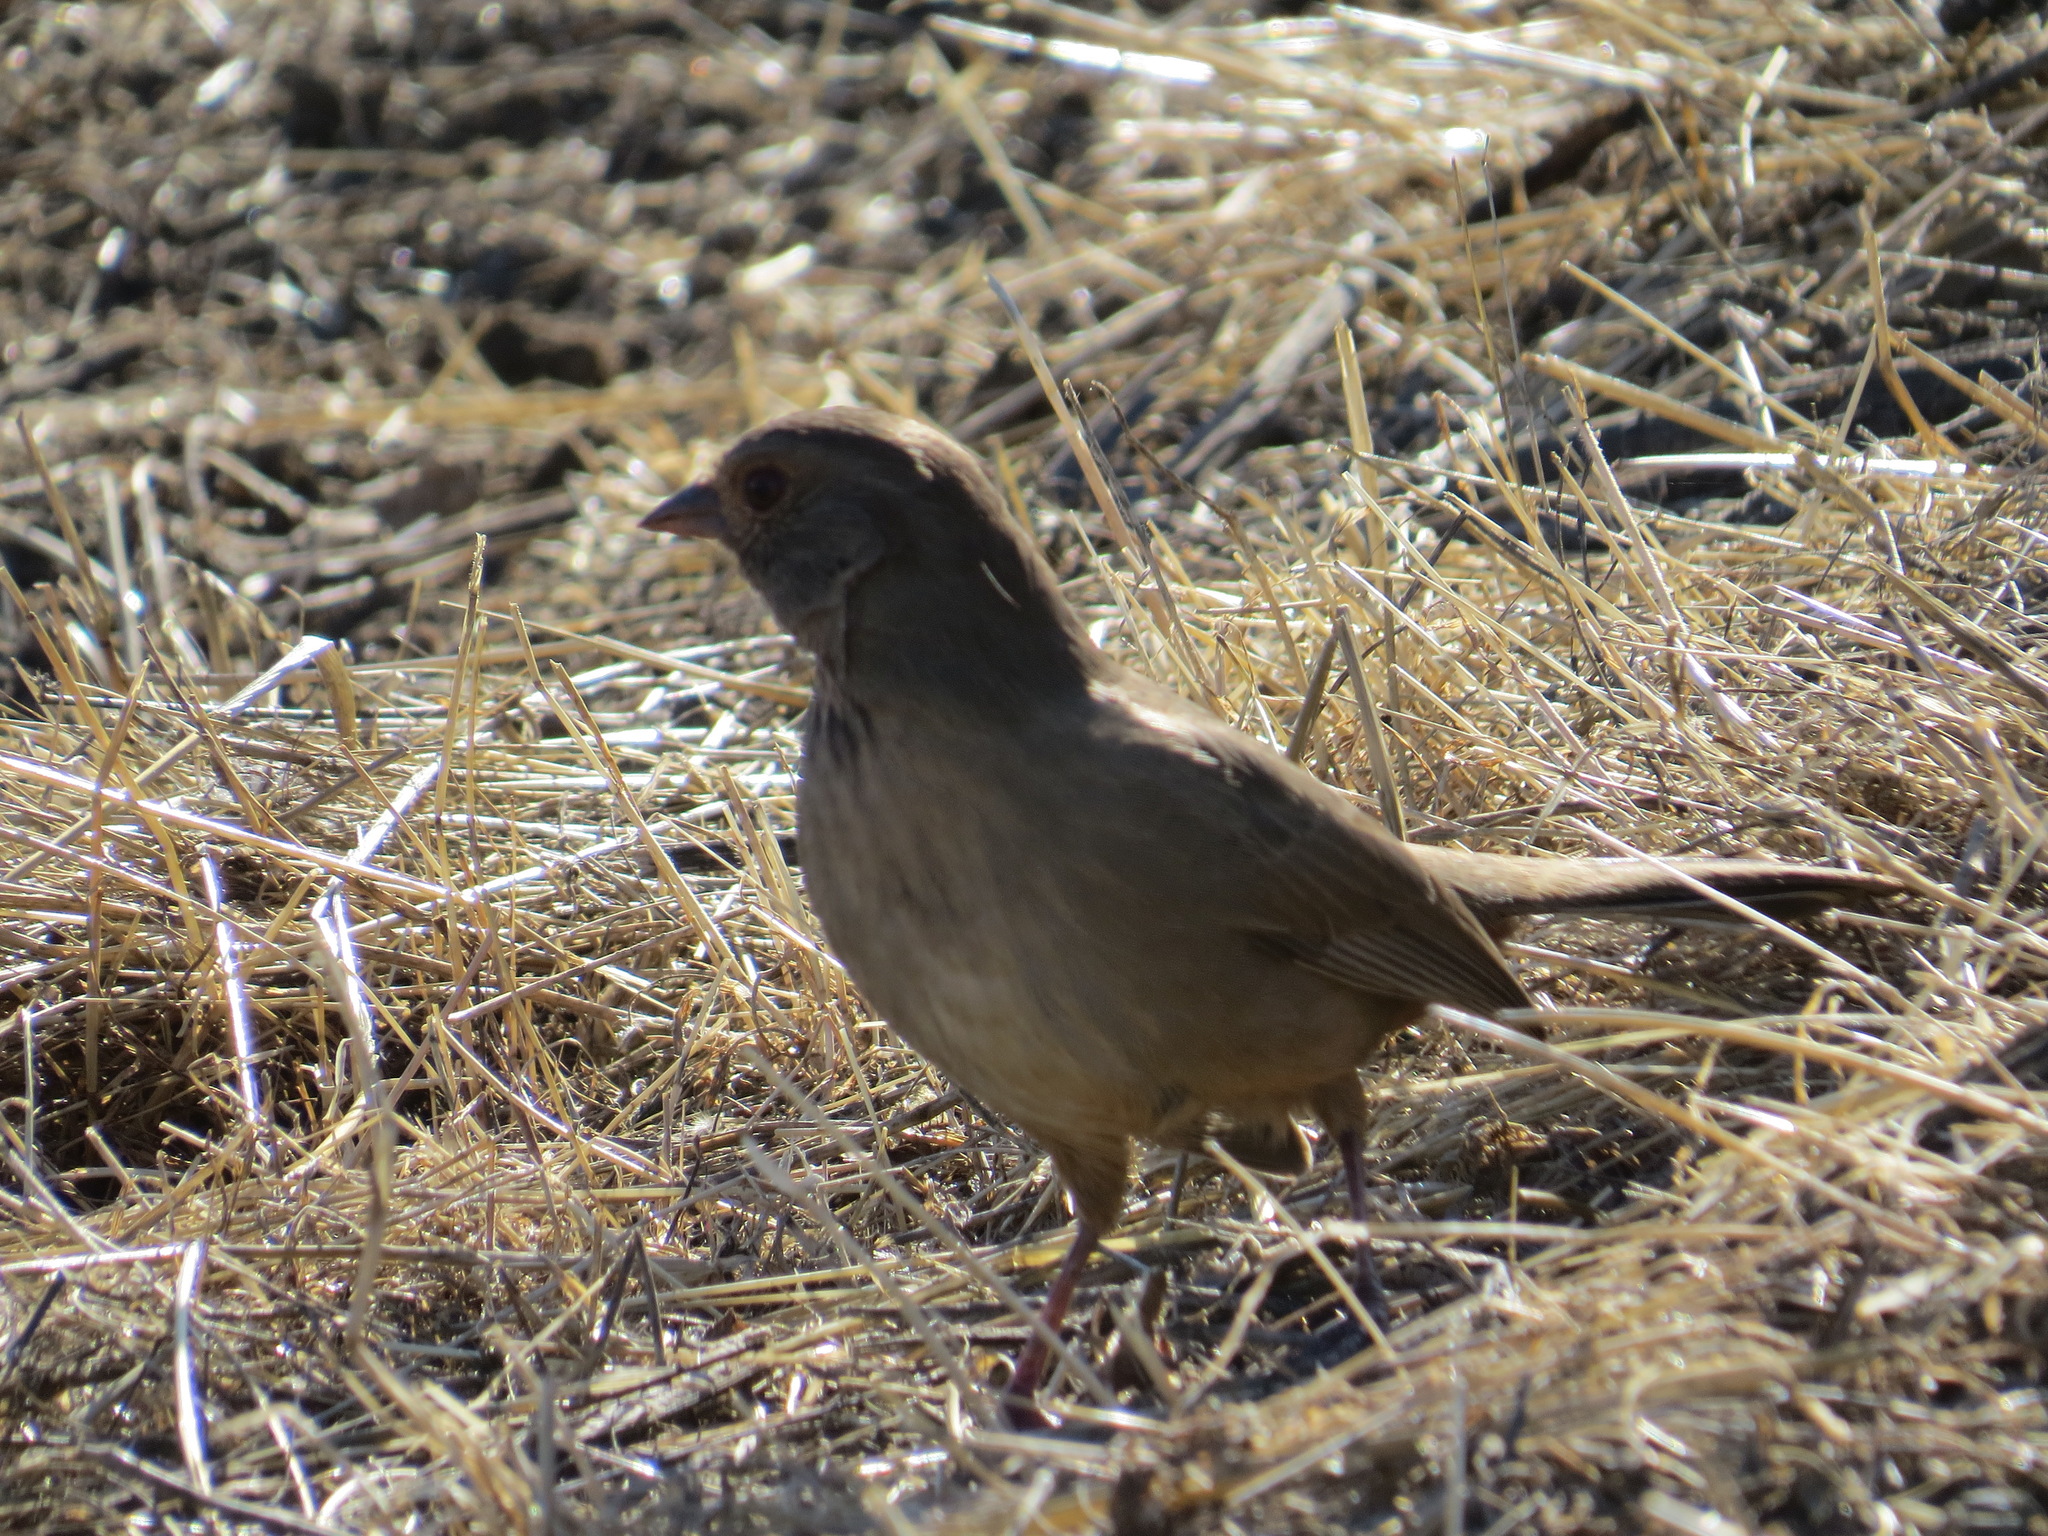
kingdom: Animalia
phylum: Chordata
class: Aves
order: Passeriformes
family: Passerellidae
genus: Melozone
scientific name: Melozone crissalis
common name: California towhee
